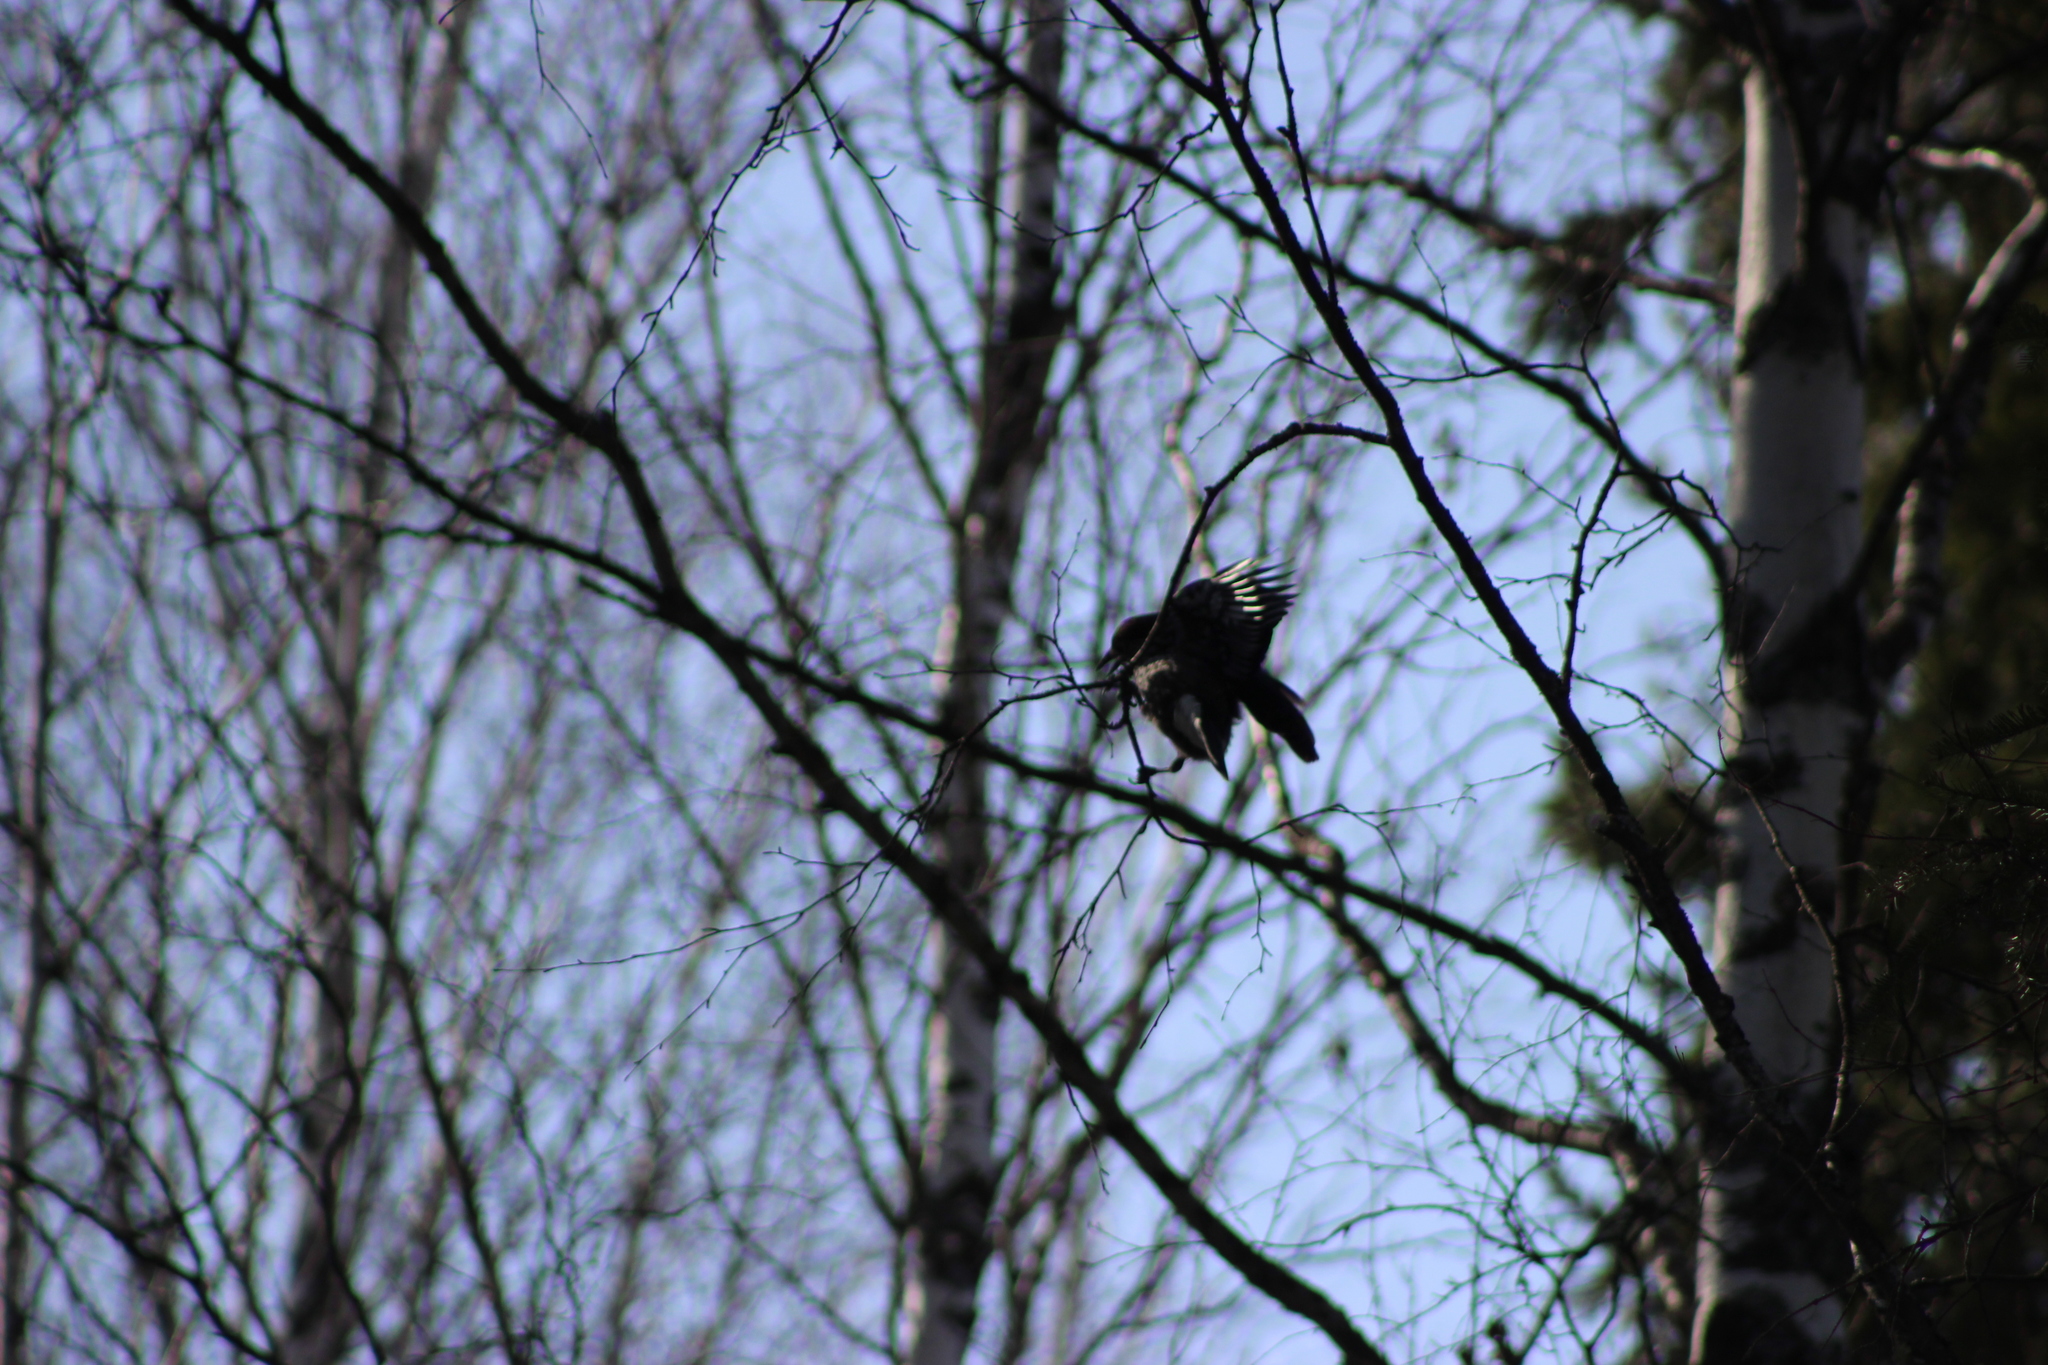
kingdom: Animalia
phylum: Chordata
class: Aves
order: Passeriformes
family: Corvidae
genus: Nucifraga
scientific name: Nucifraga caryocatactes
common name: Spotted nutcracker
